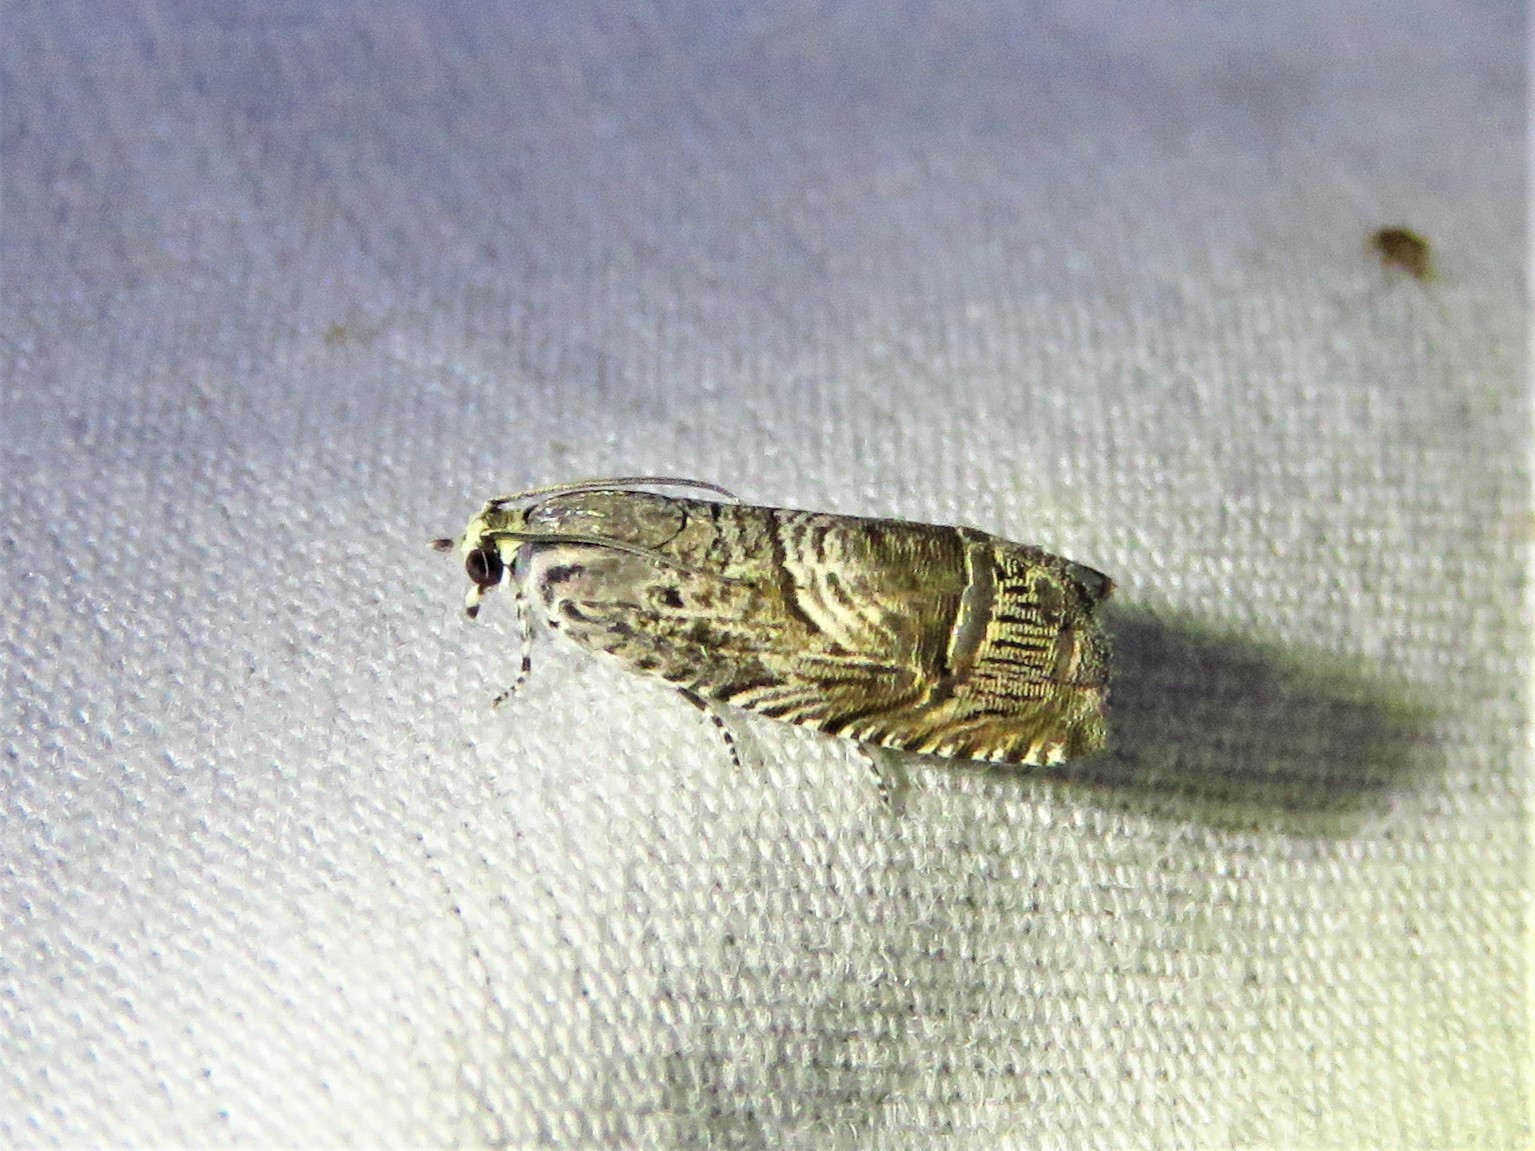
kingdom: Animalia
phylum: Arthropoda
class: Insecta
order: Lepidoptera
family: Tortricidae
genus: Ofatulena
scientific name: Ofatulena duodecemstriata
